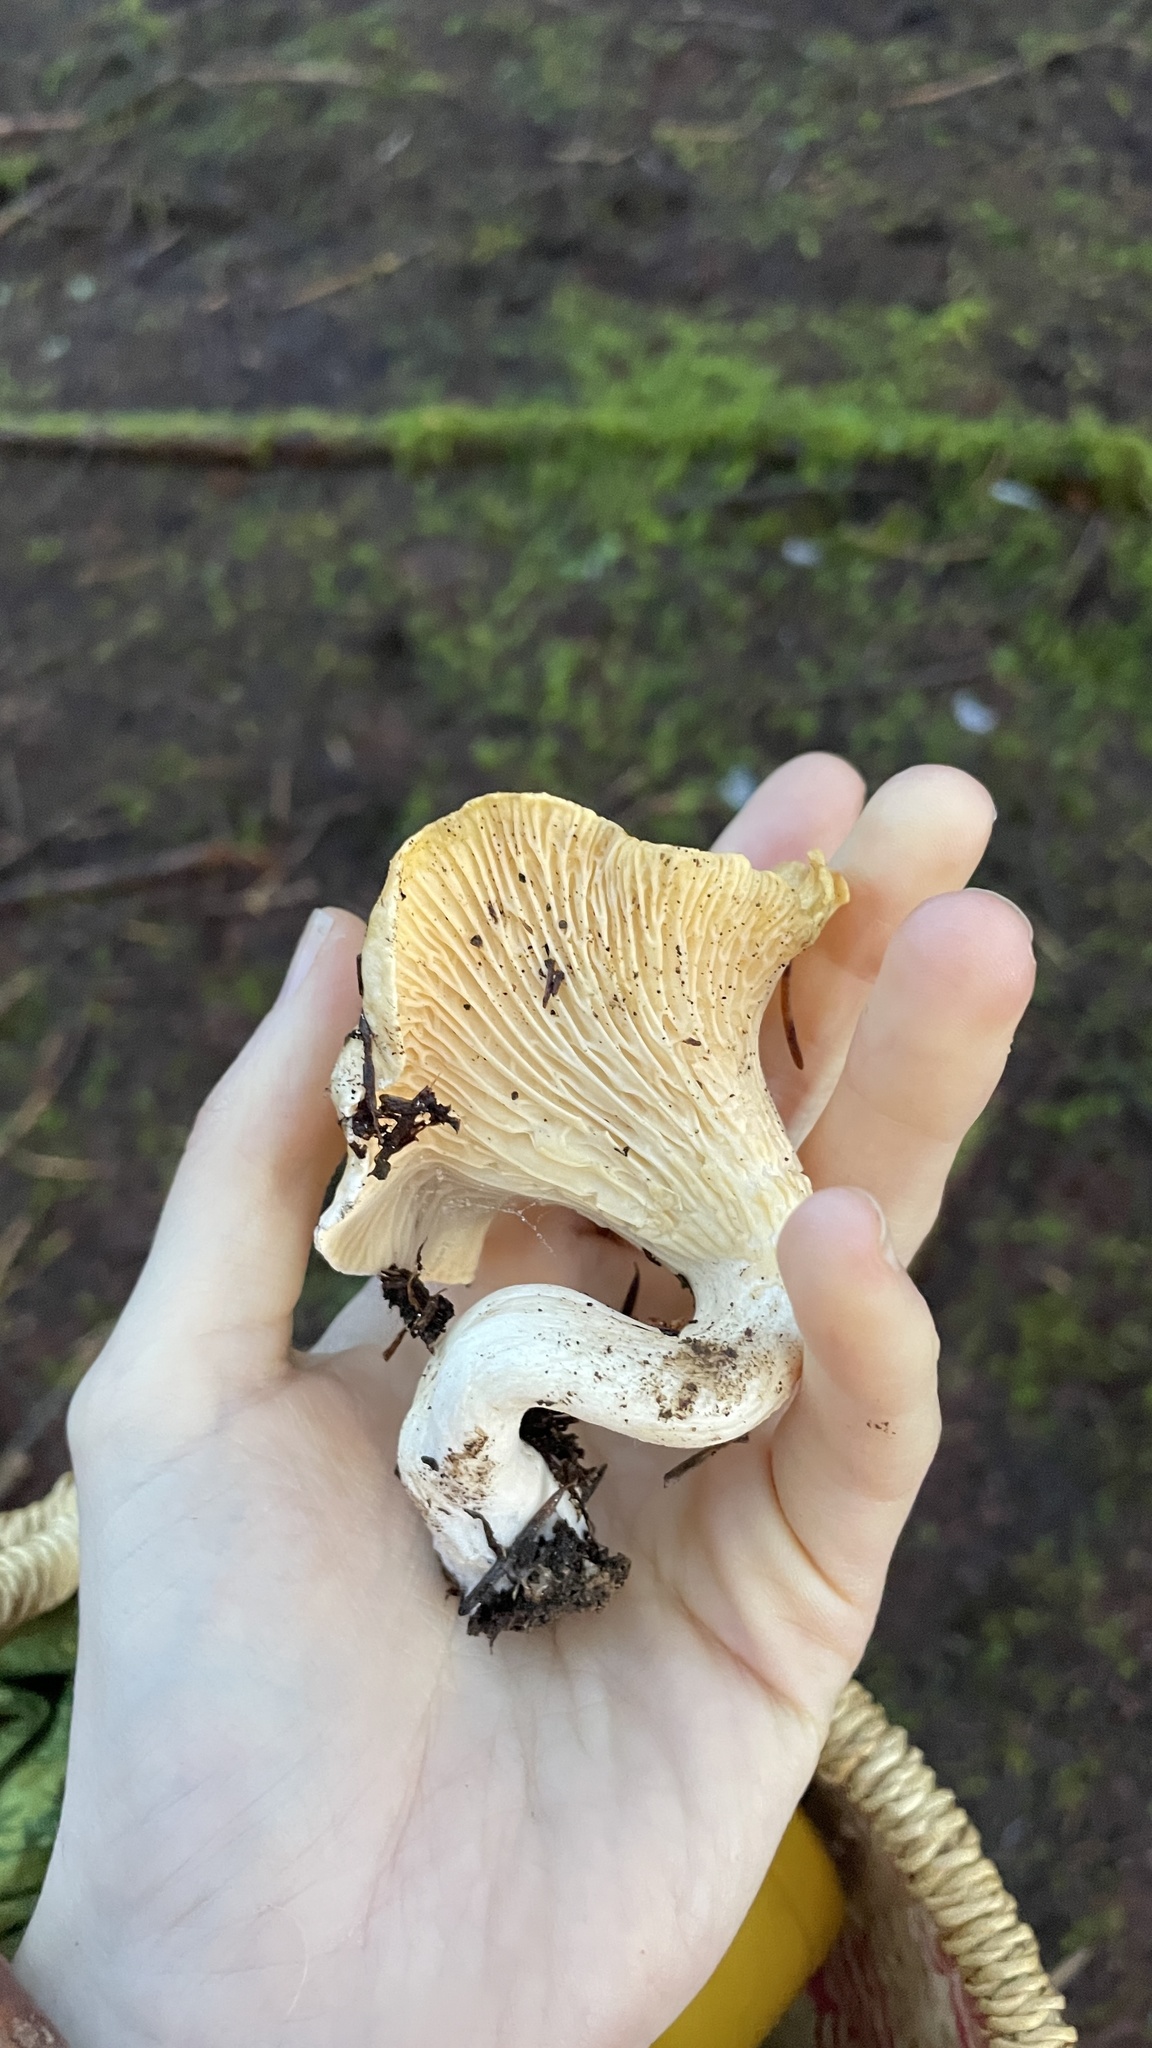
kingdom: Fungi
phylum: Basidiomycota
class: Agaricomycetes
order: Cantharellales
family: Hydnaceae
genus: Cantharellus
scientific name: Cantharellus formosus
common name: Pacific golden chanterelle
